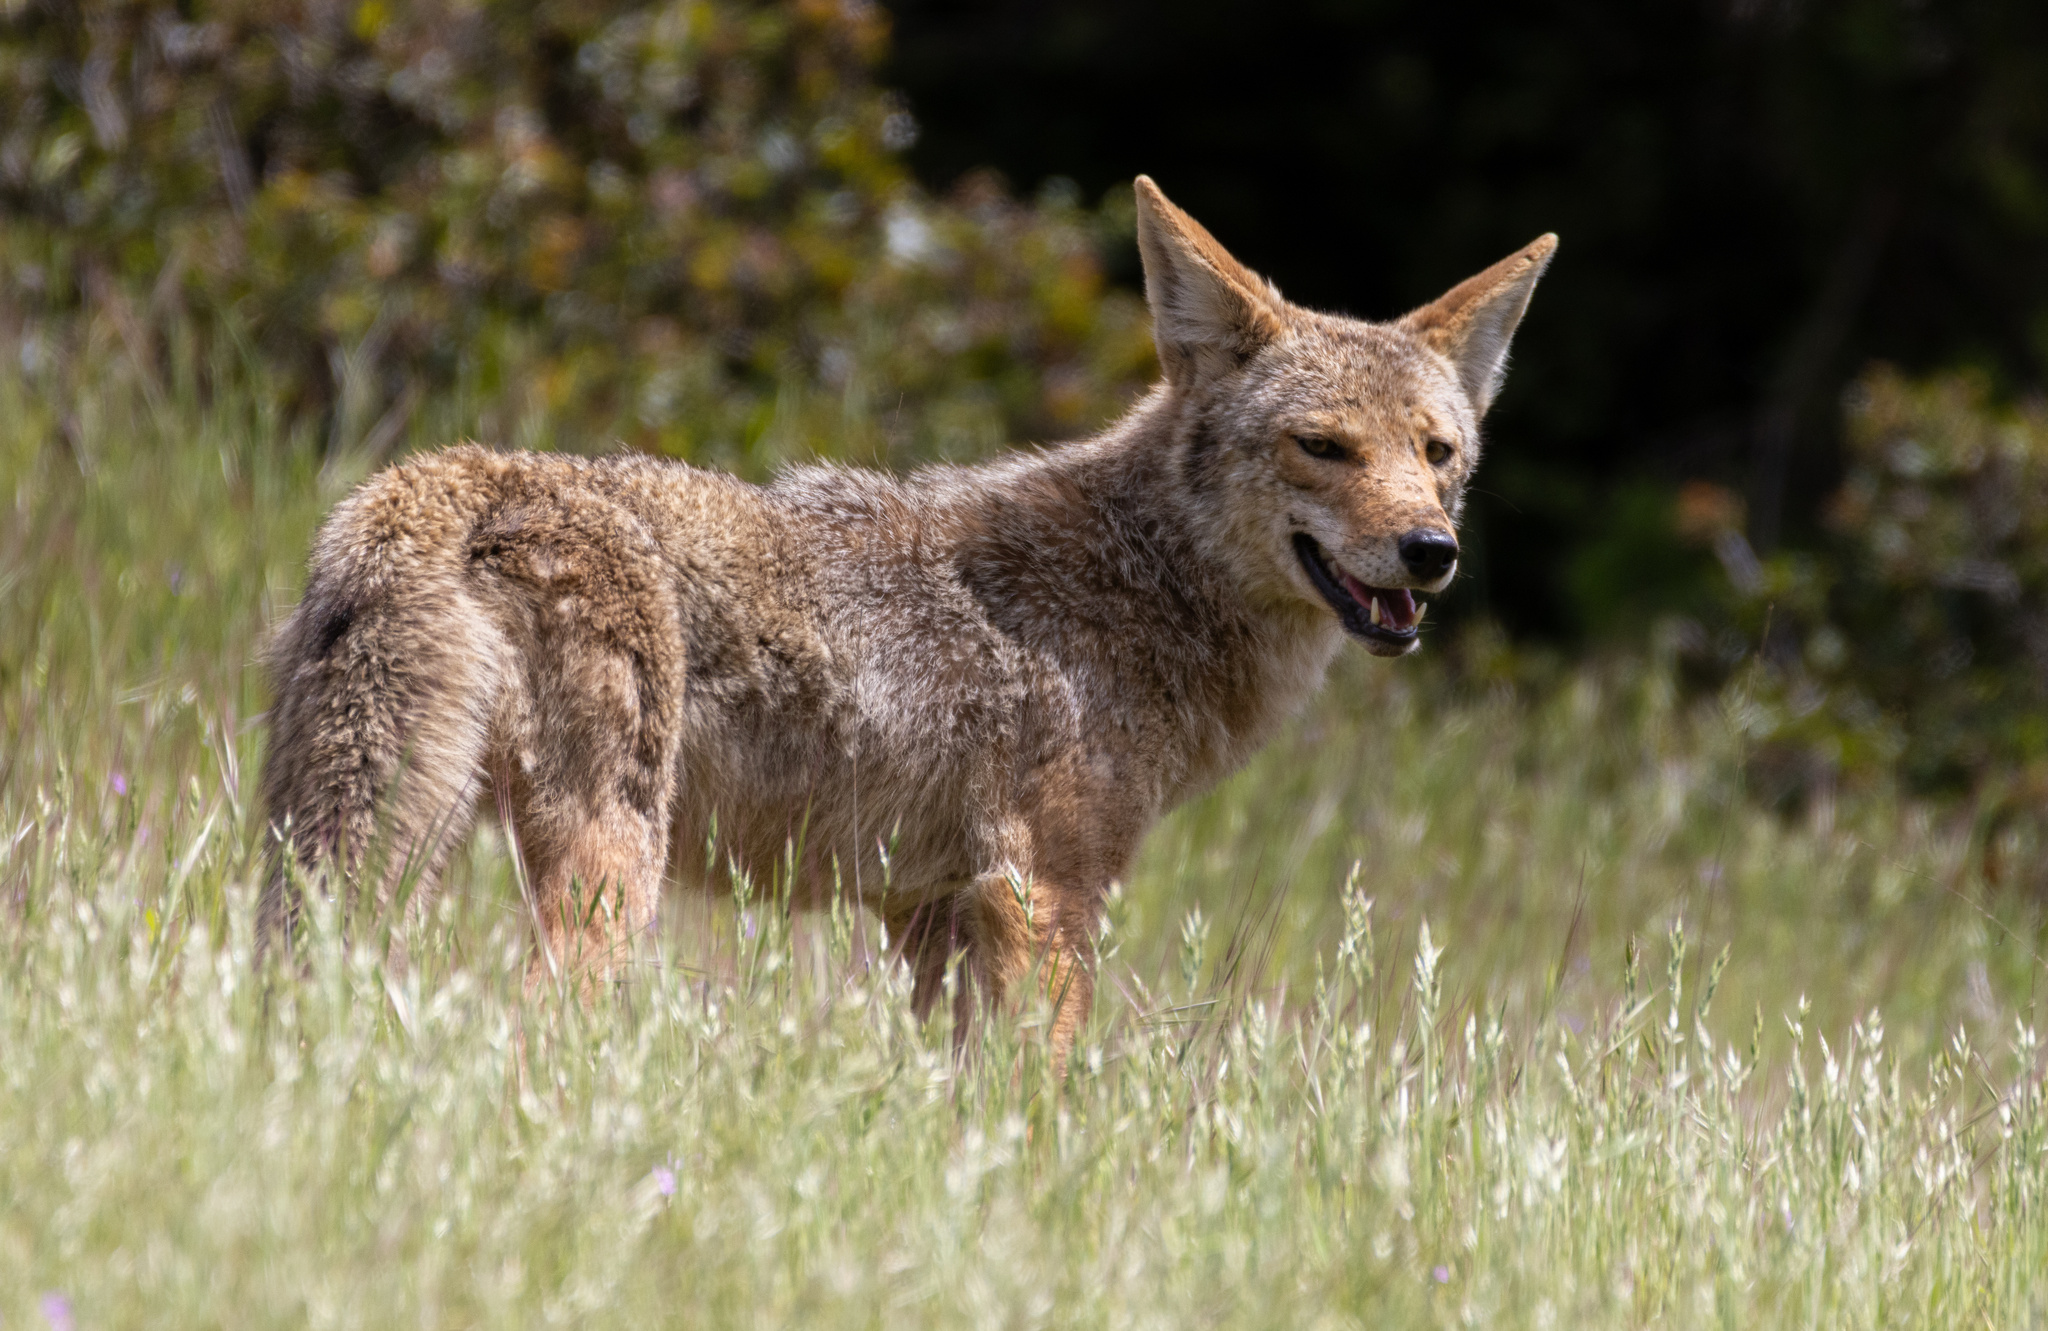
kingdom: Animalia
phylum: Chordata
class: Mammalia
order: Carnivora
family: Canidae
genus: Canis
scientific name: Canis latrans
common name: Coyote
